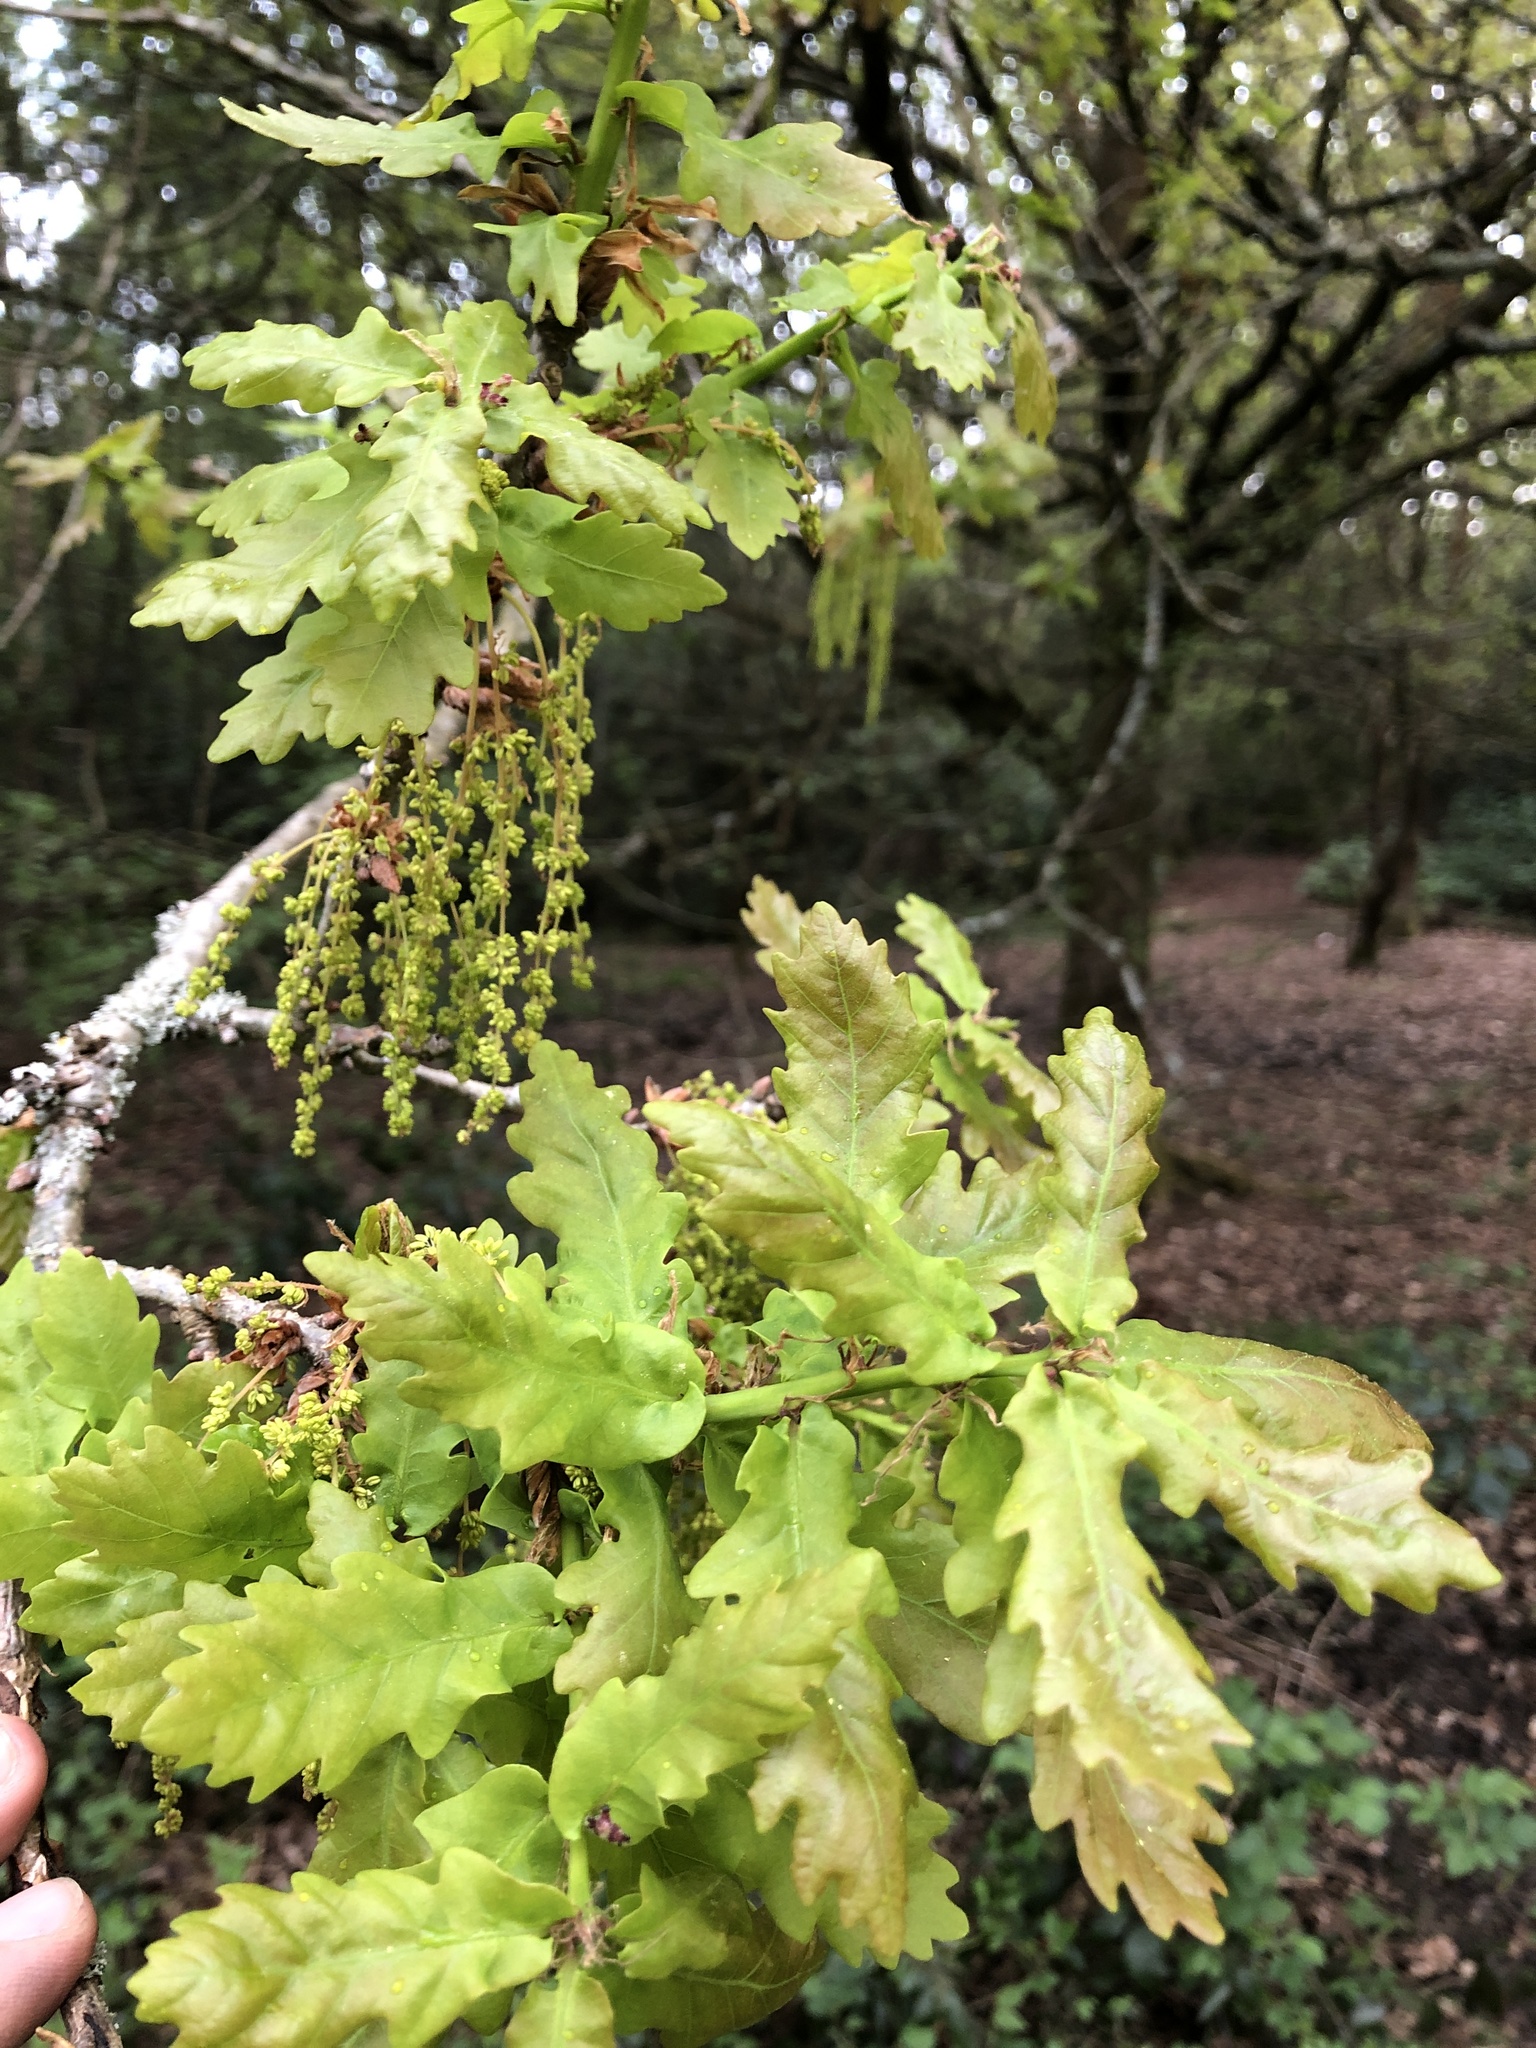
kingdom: Plantae
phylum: Tracheophyta
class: Magnoliopsida
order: Fagales
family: Fagaceae
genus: Quercus
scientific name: Quercus robur
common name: Pedunculate oak
